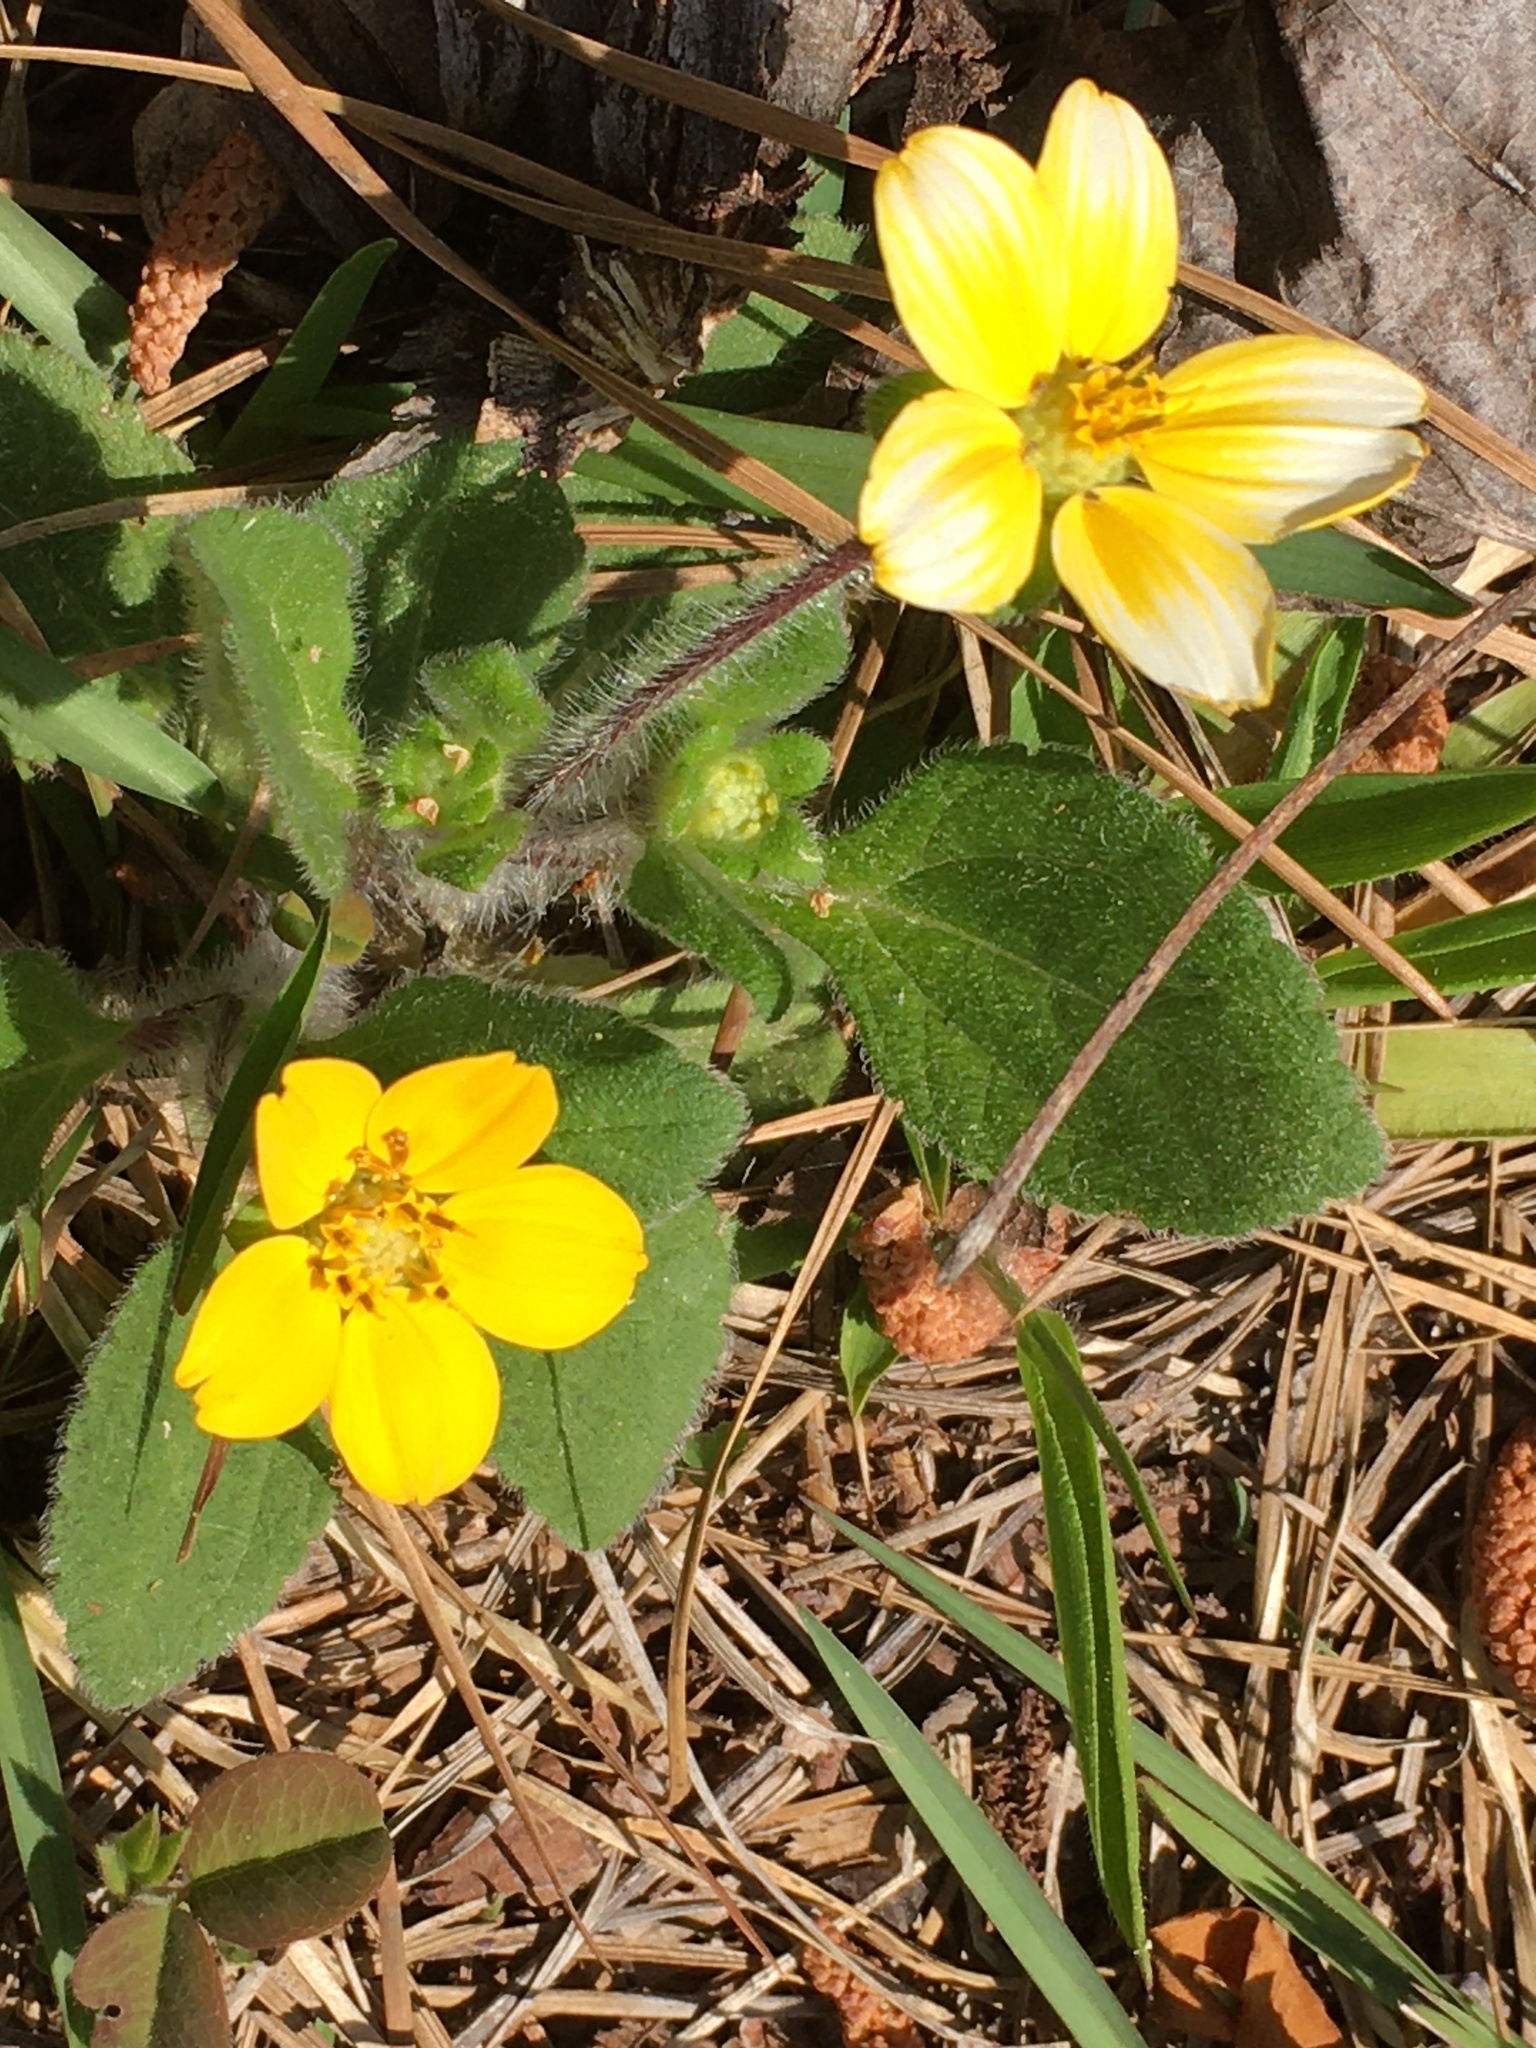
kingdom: Plantae
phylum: Tracheophyta
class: Magnoliopsida
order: Asterales
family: Asteraceae
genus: Chrysogonum
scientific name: Chrysogonum virginianum
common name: Golden-knee
